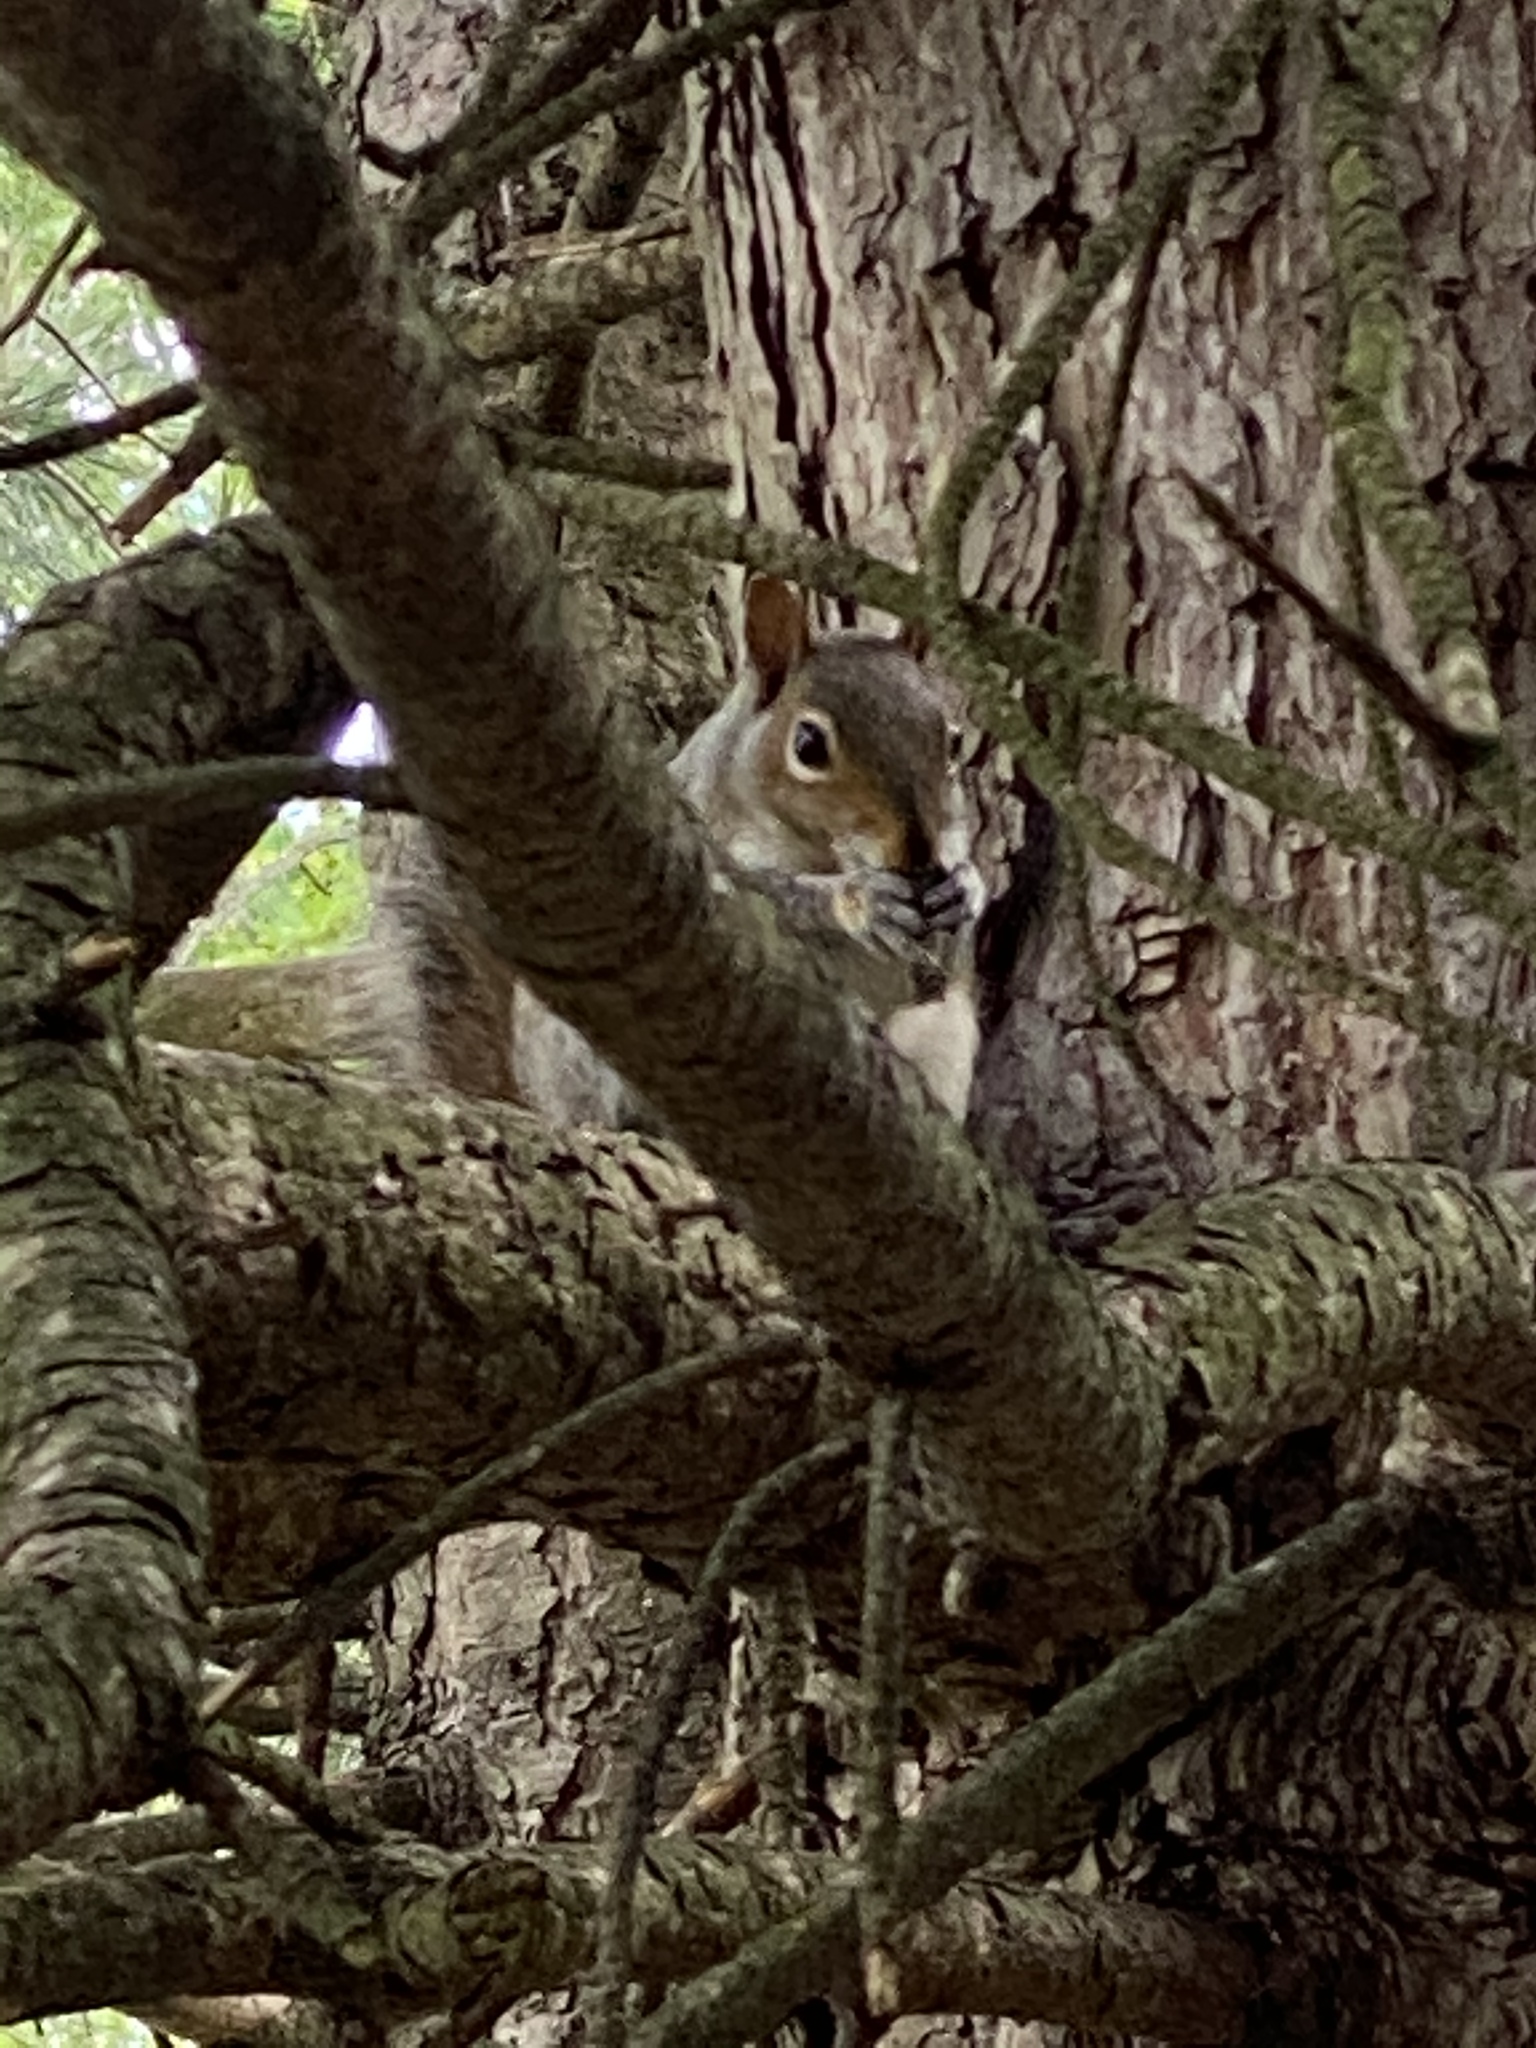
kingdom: Animalia
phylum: Chordata
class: Mammalia
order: Rodentia
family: Sciuridae
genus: Sciurus
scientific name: Sciurus carolinensis
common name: Eastern gray squirrel
